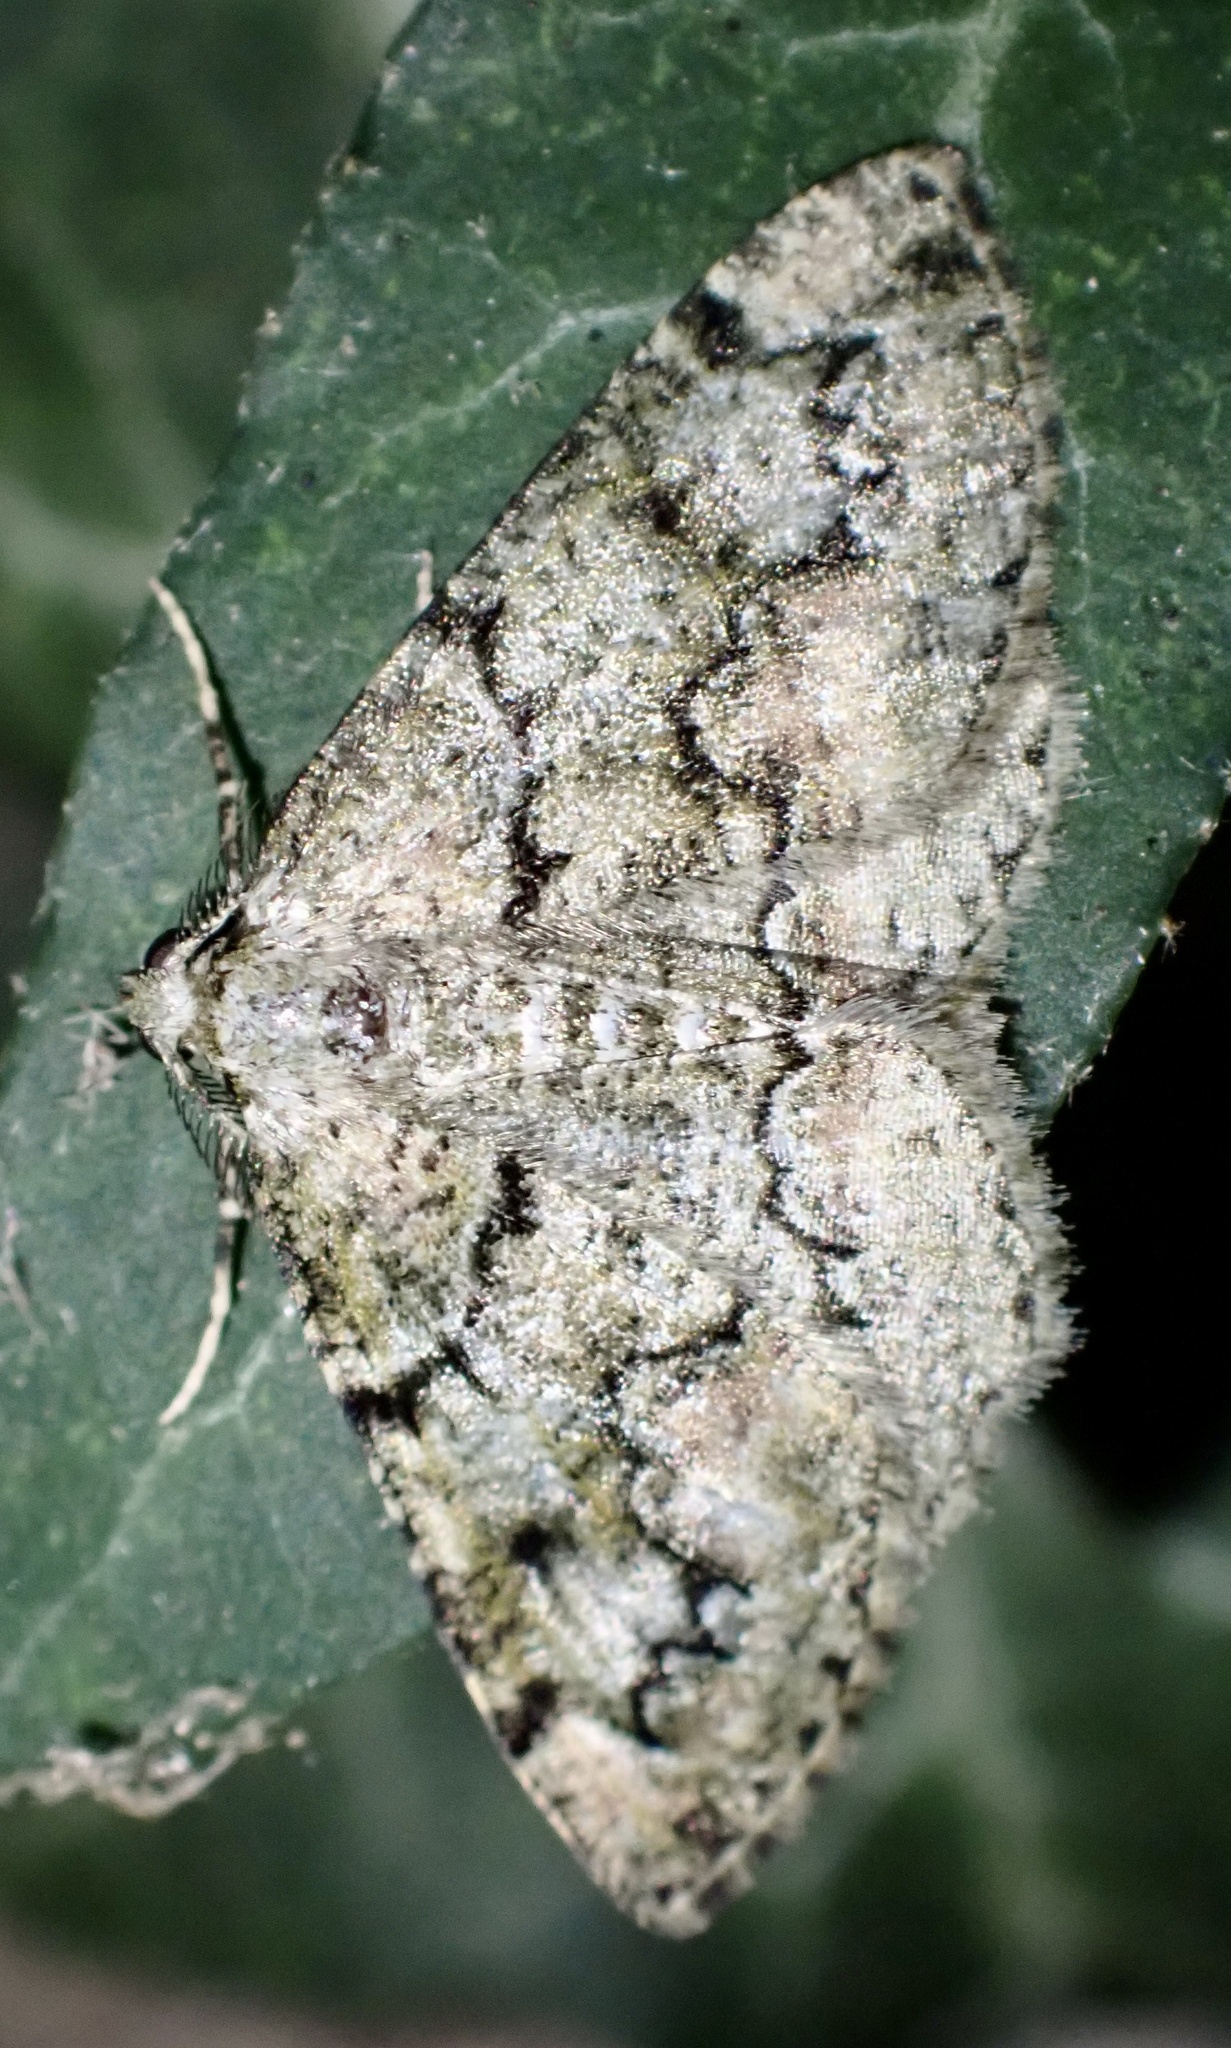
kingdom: Animalia
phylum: Arthropoda
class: Insecta
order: Lepidoptera
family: Geometridae
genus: Cleorodes
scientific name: Cleorodes lichenaria
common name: Brussels lace
